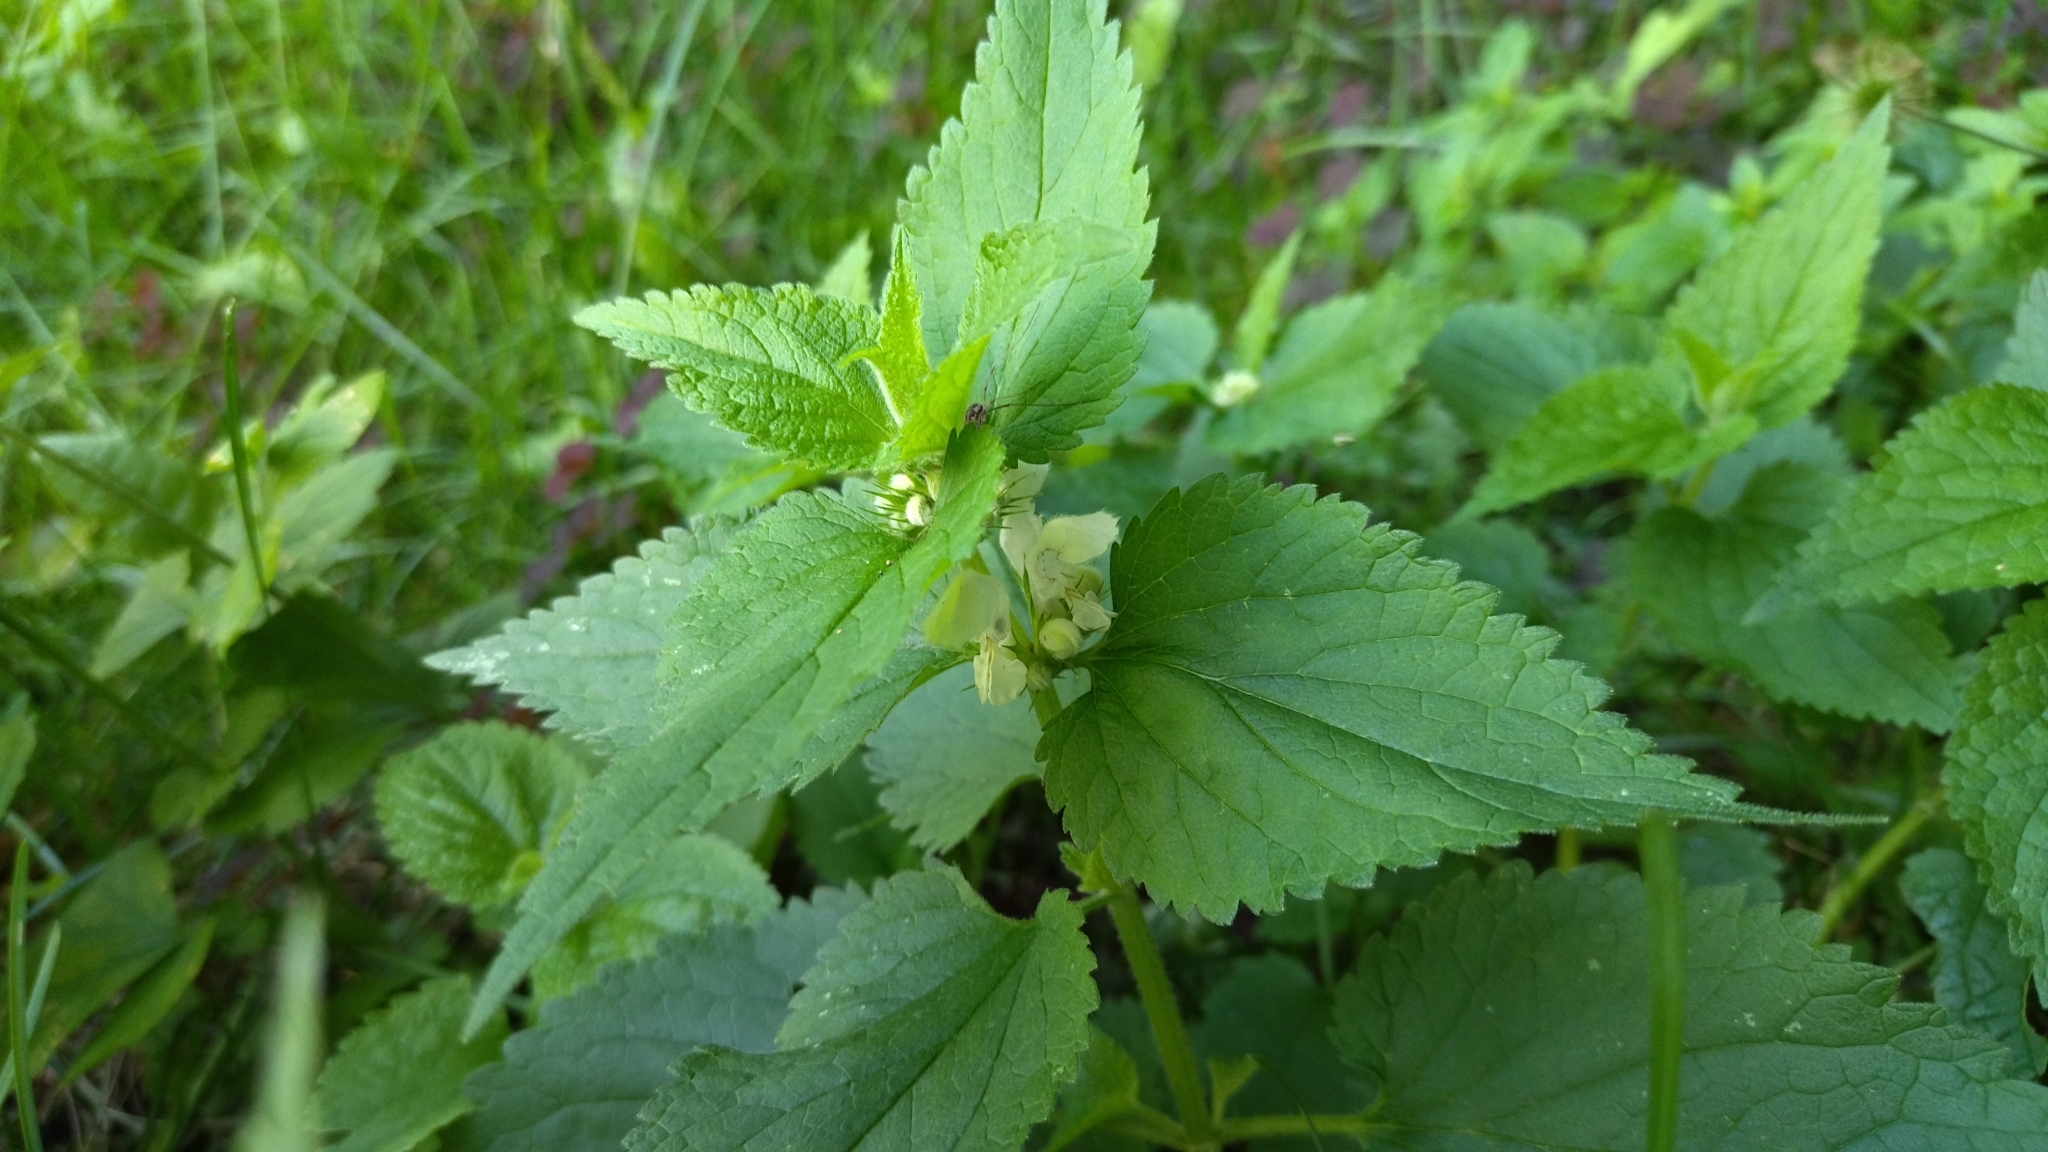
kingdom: Plantae
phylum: Tracheophyta
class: Magnoliopsida
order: Lamiales
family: Lamiaceae
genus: Lamium
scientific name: Lamium album
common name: White dead-nettle
